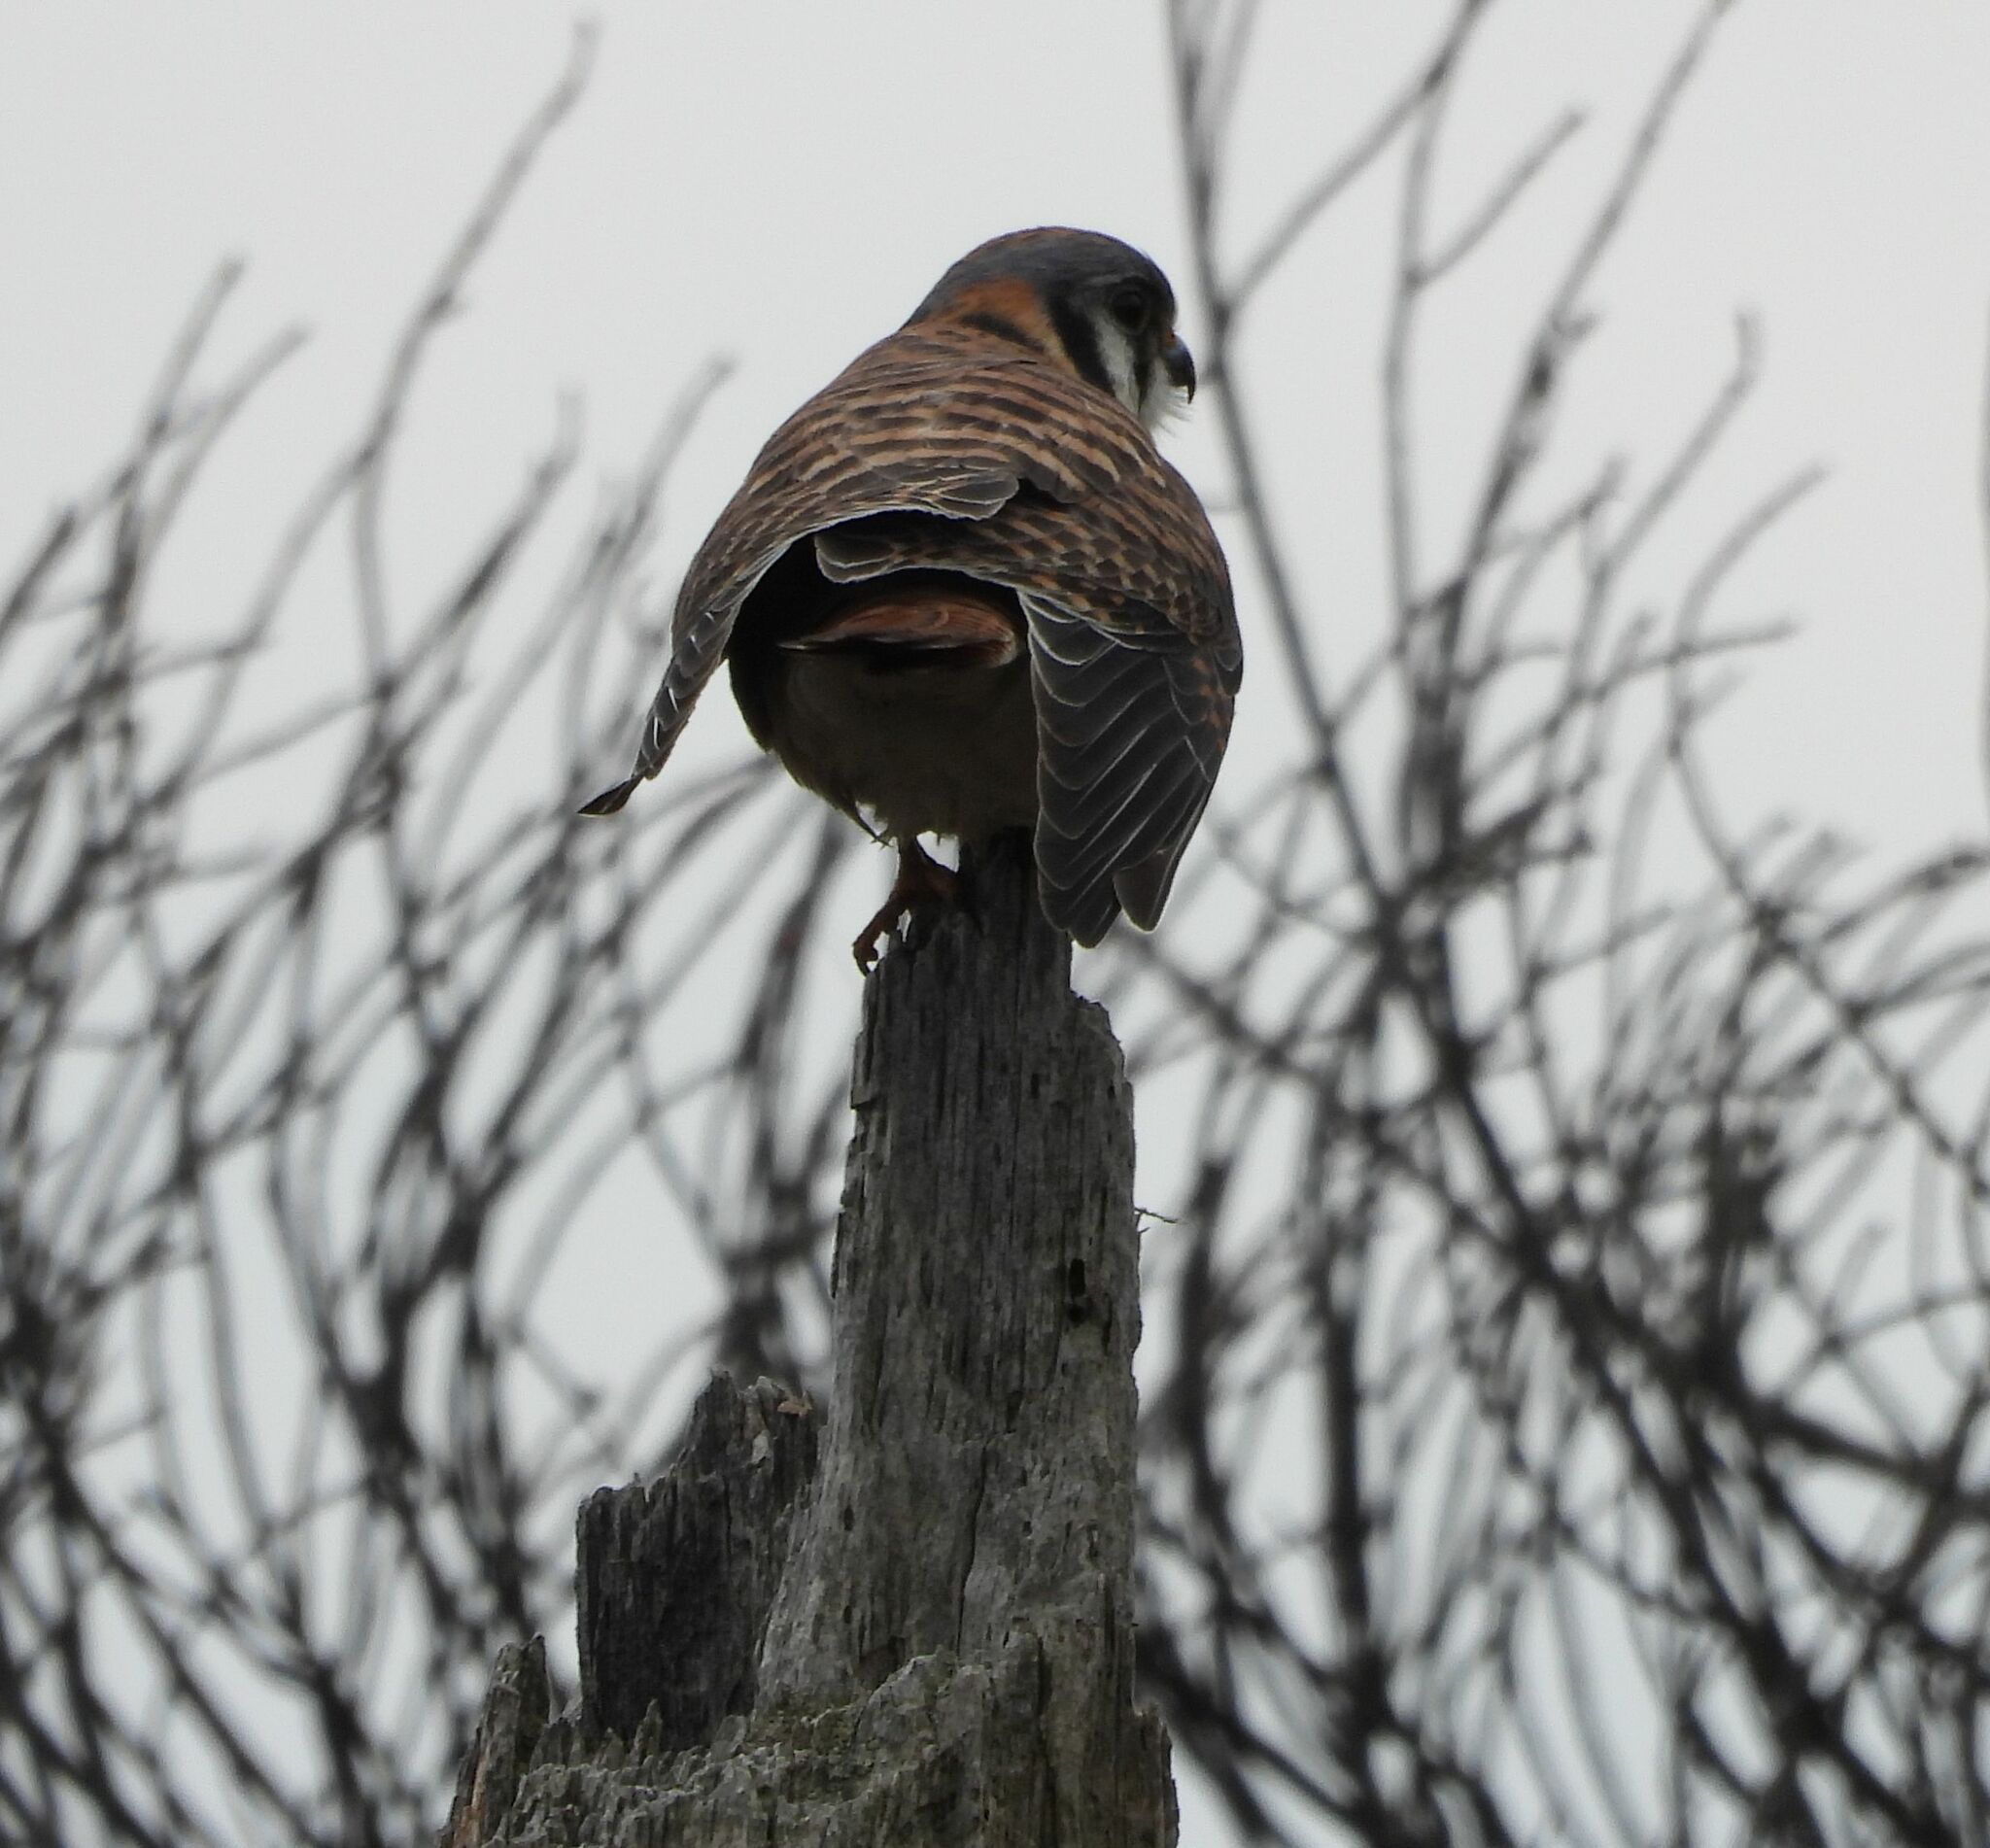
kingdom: Animalia
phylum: Chordata
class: Aves
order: Falconiformes
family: Falconidae
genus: Falco
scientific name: Falco sparverius
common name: American kestrel
